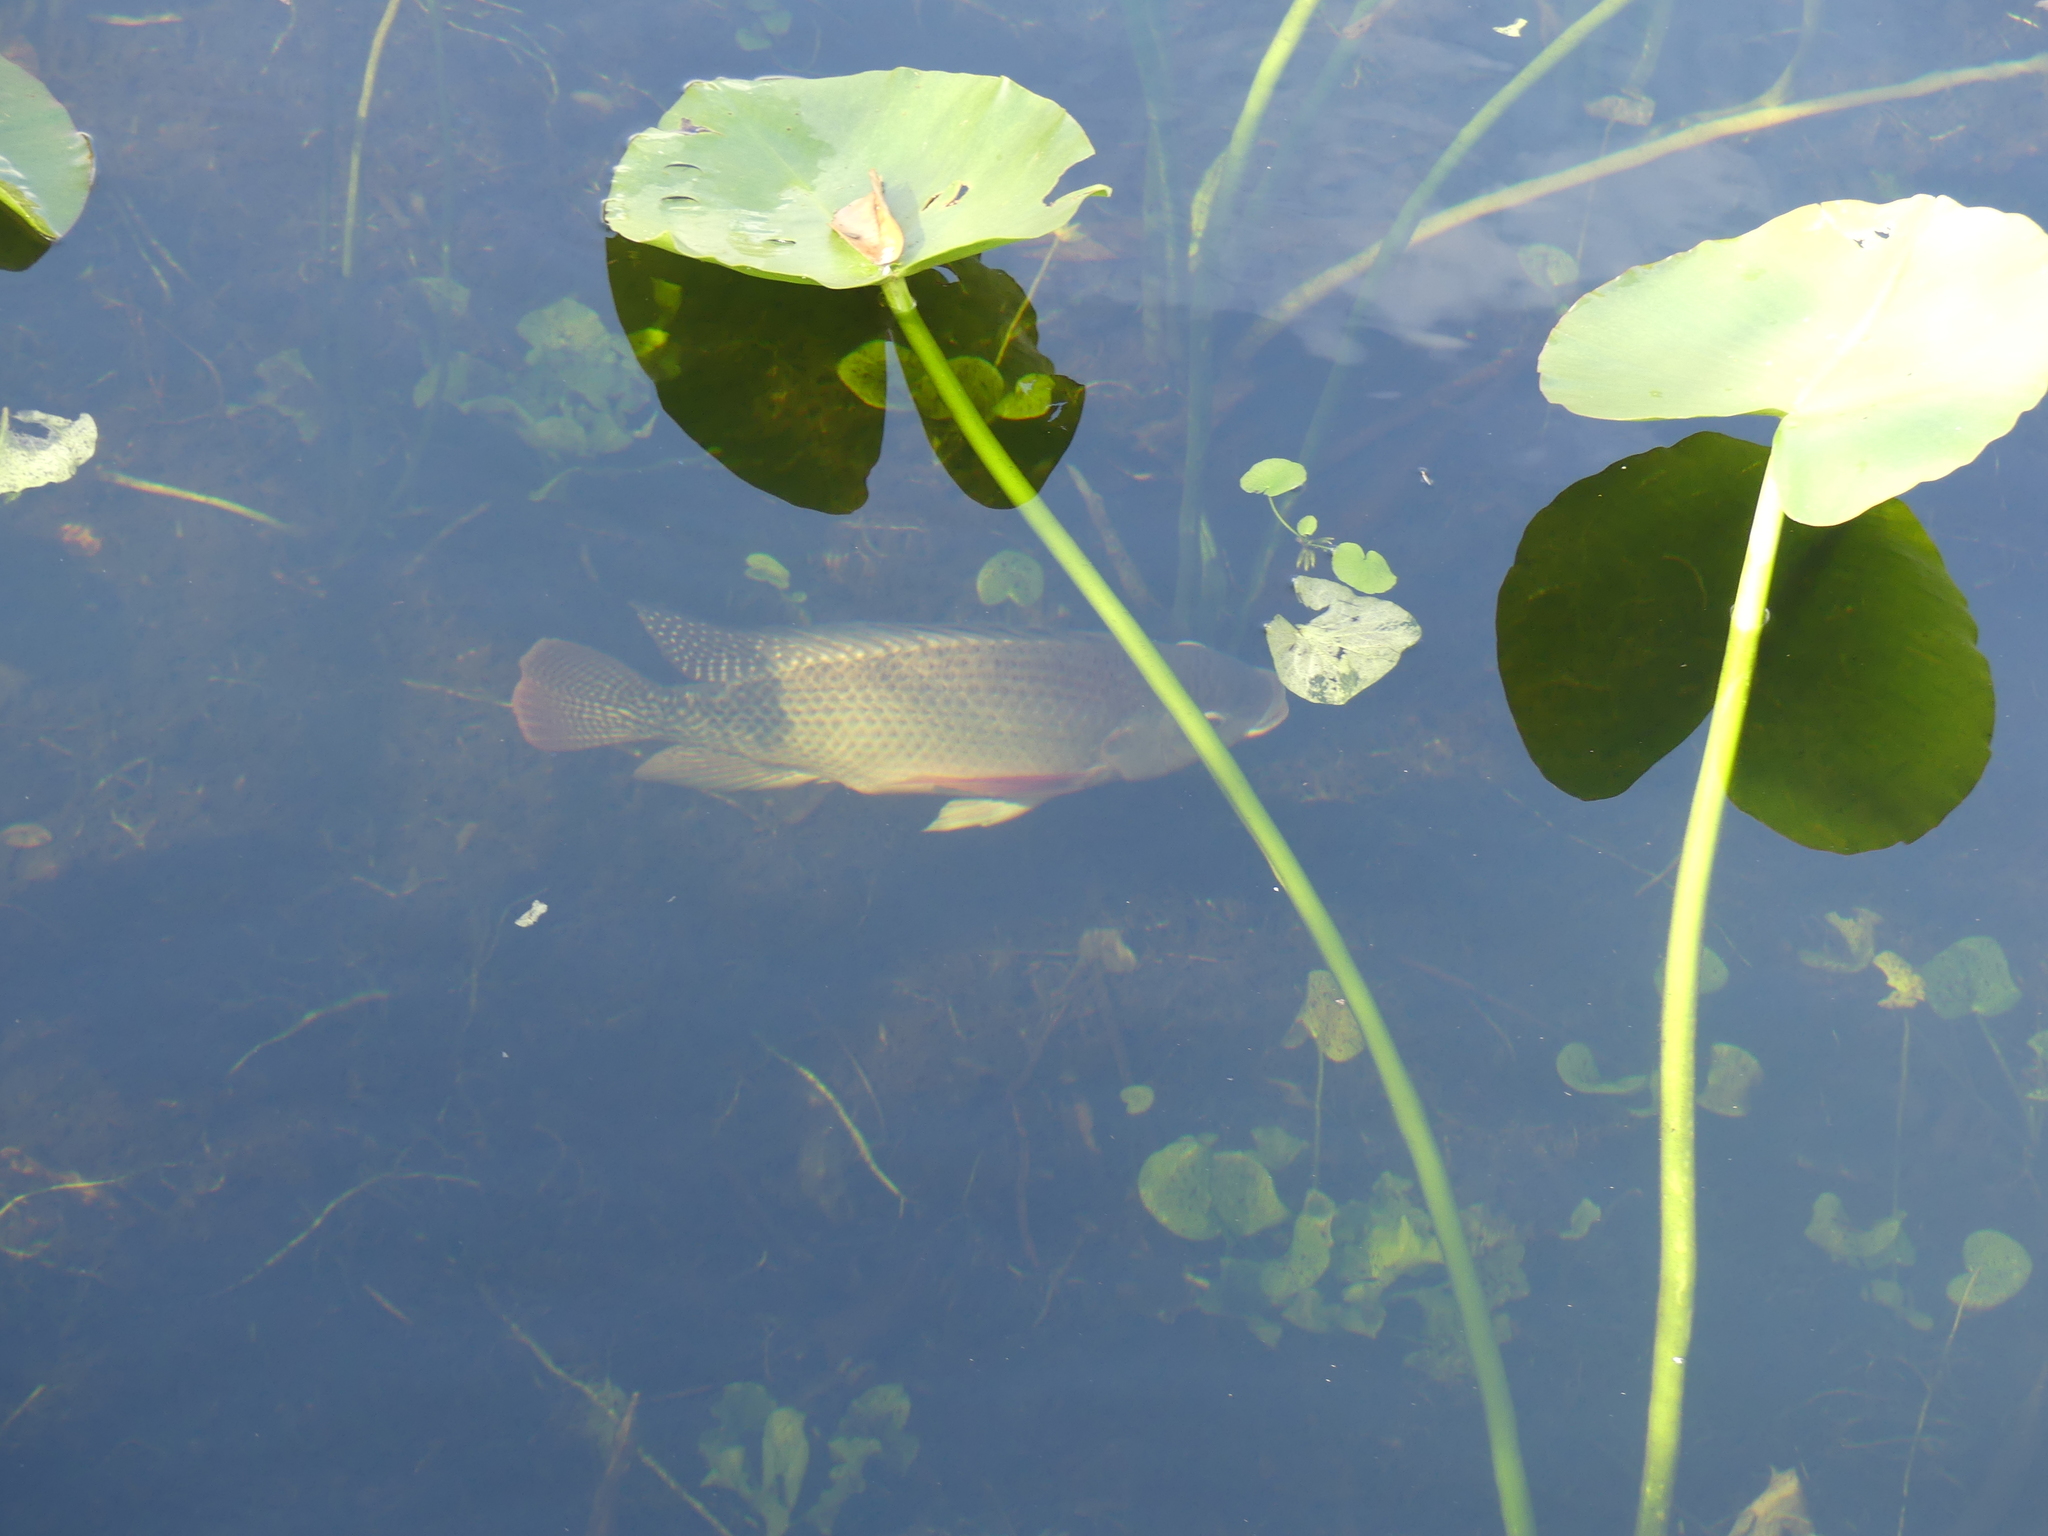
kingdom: Animalia
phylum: Chordata
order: Perciformes
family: Cichlidae
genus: Oreochromis
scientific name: Oreochromis aureus
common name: Blue tilapia
